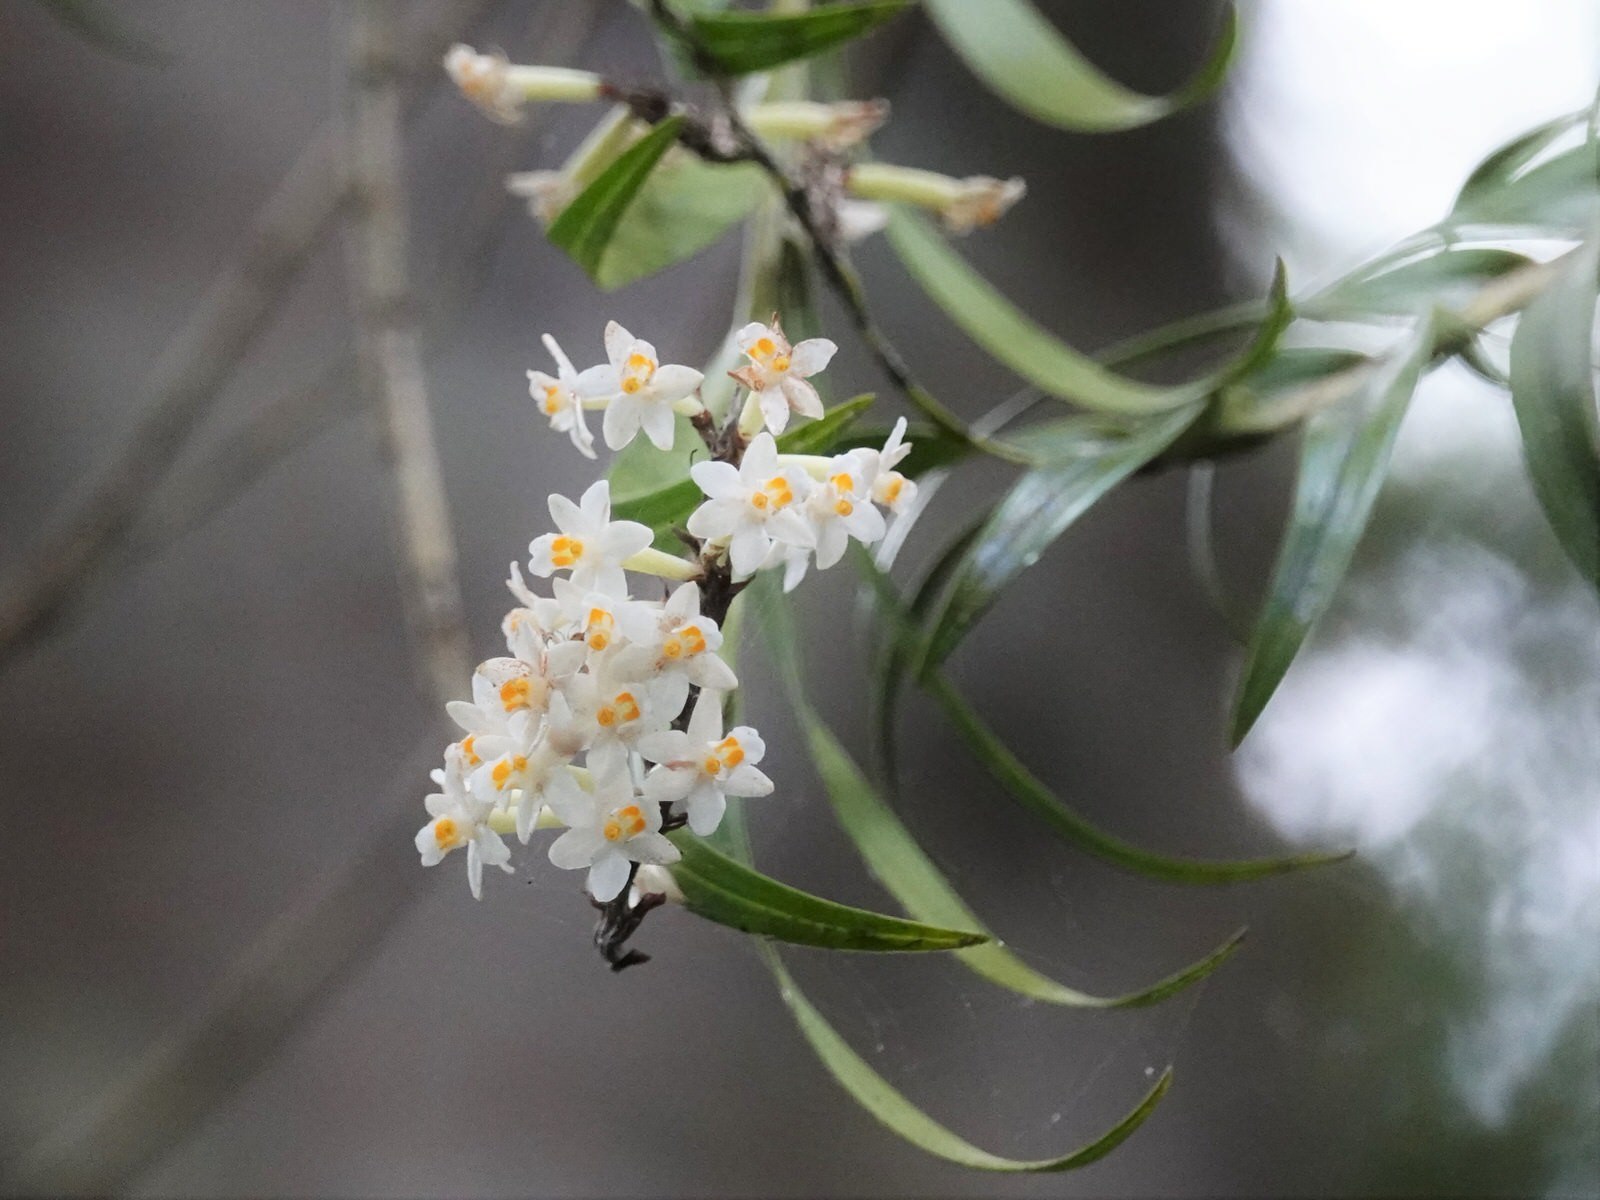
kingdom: Plantae
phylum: Tracheophyta
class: Liliopsida
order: Asparagales
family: Orchidaceae
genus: Earina
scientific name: Earina autumnalis
